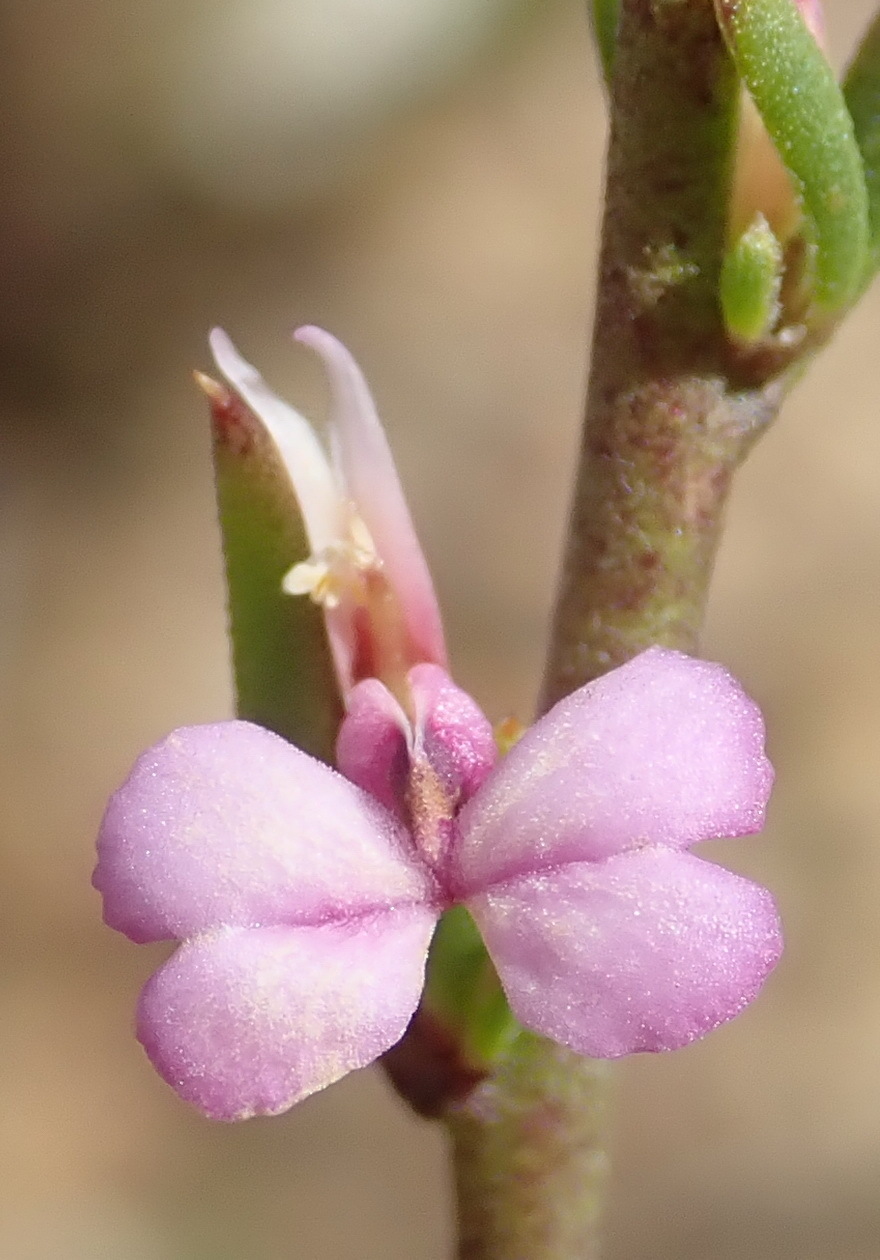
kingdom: Plantae
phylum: Tracheophyta
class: Magnoliopsida
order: Fabales
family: Polygalaceae
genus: Muraltia
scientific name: Muraltia dispersa
